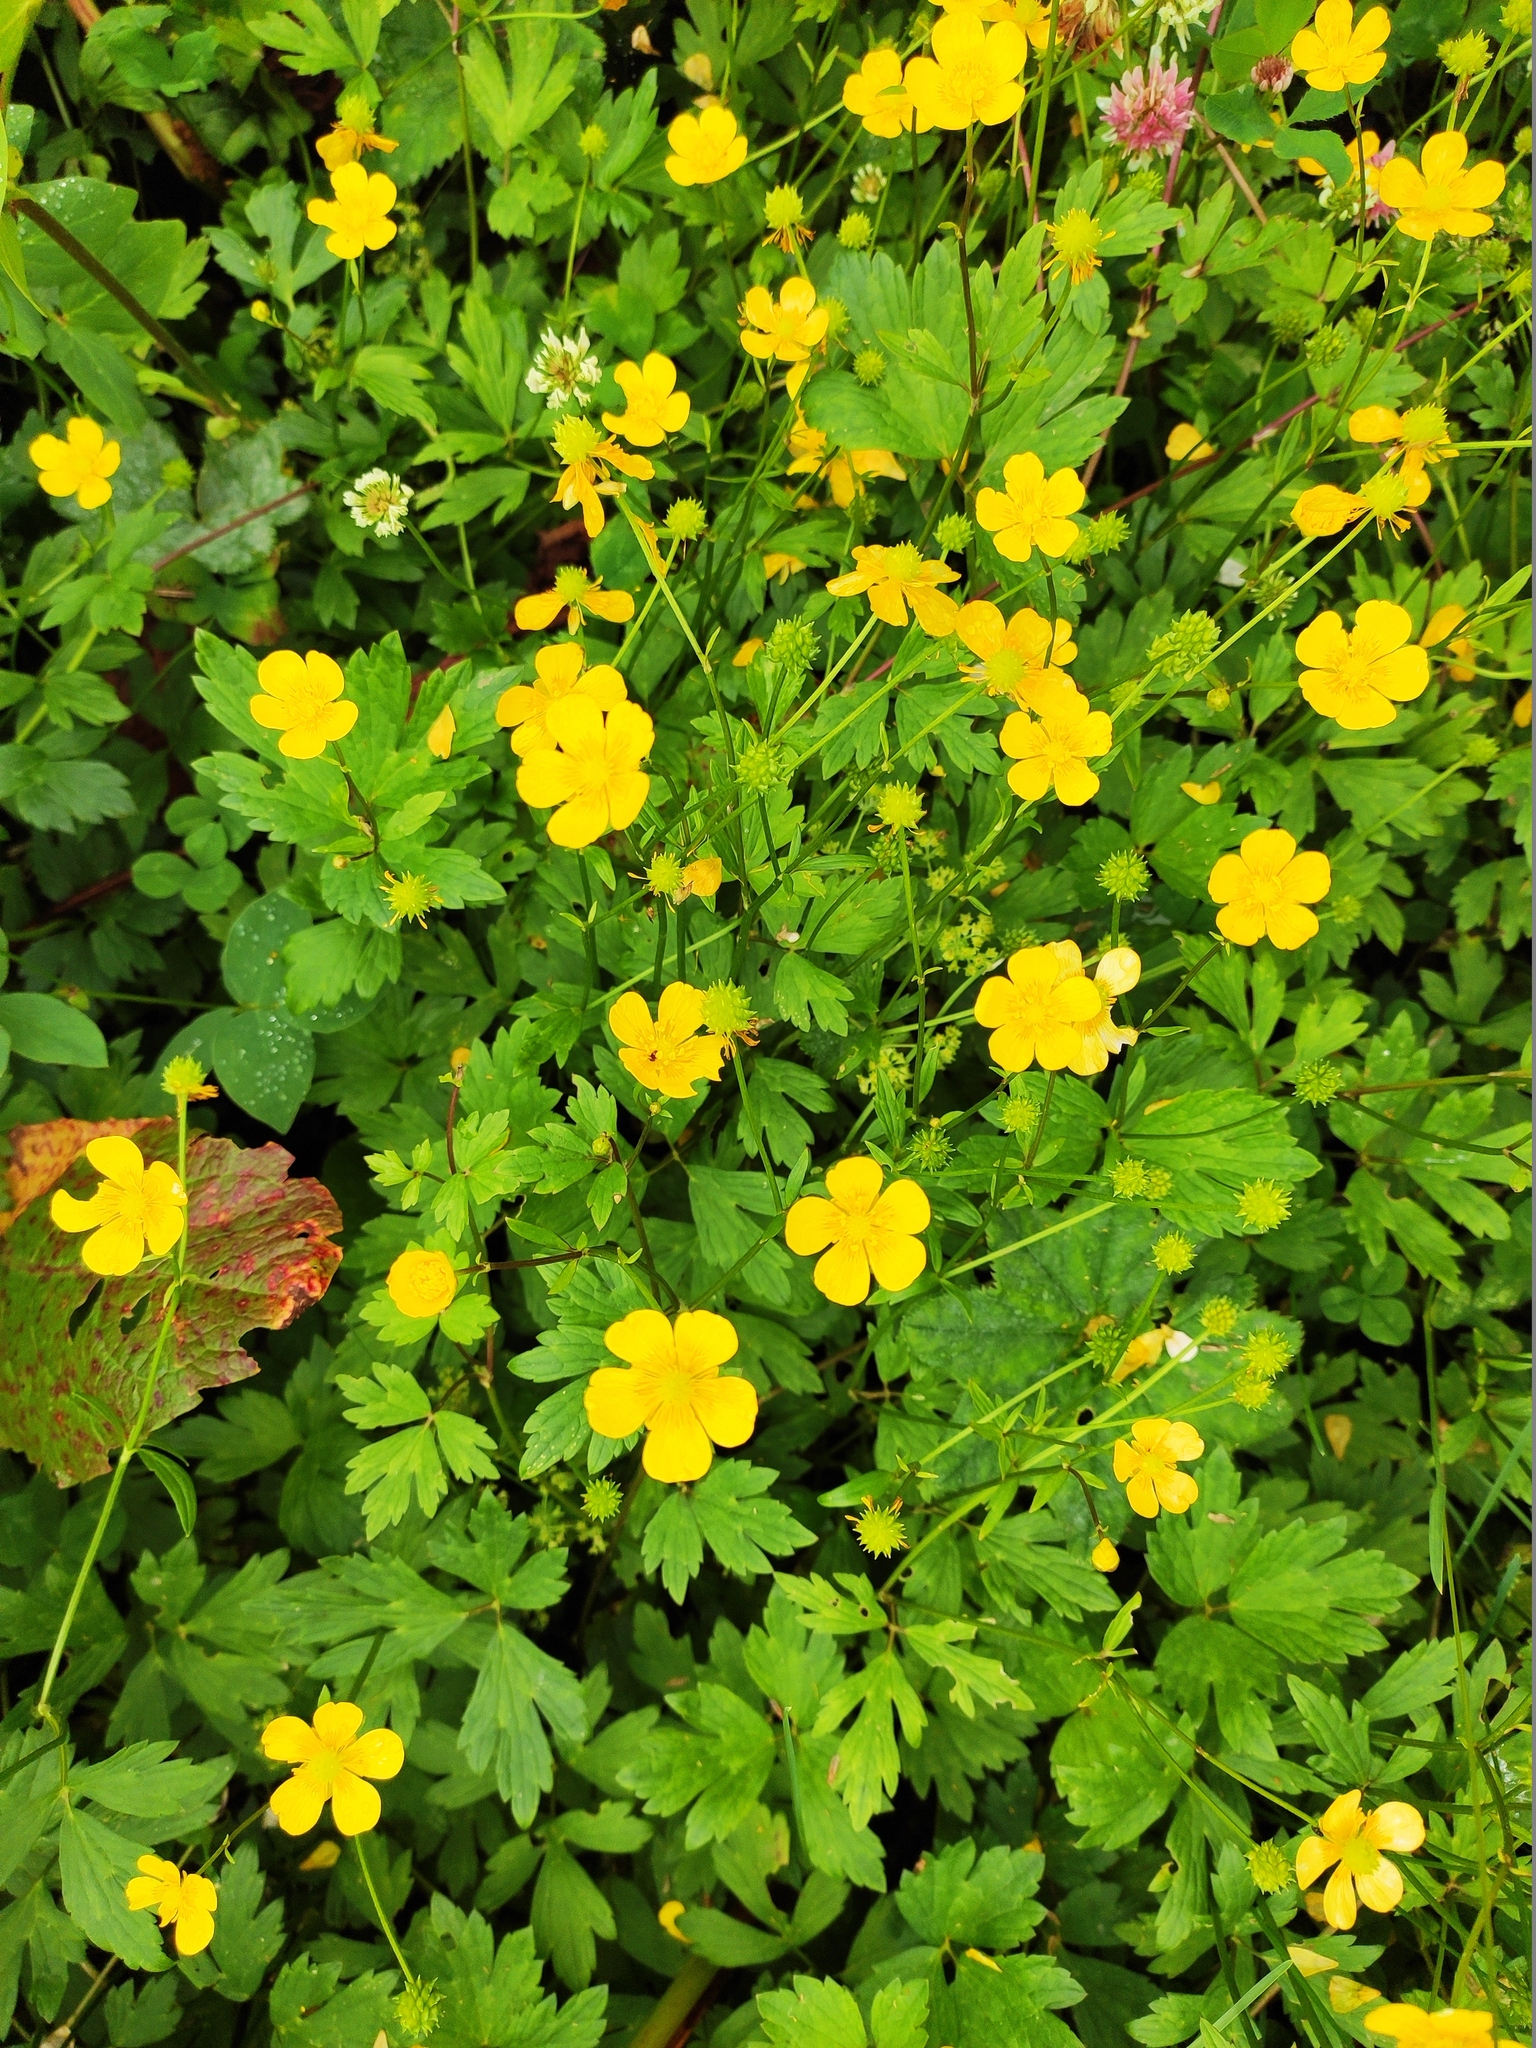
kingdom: Plantae
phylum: Tracheophyta
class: Magnoliopsida
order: Ranunculales
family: Ranunculaceae
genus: Ranunculus
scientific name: Ranunculus repens
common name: Creeping buttercup
